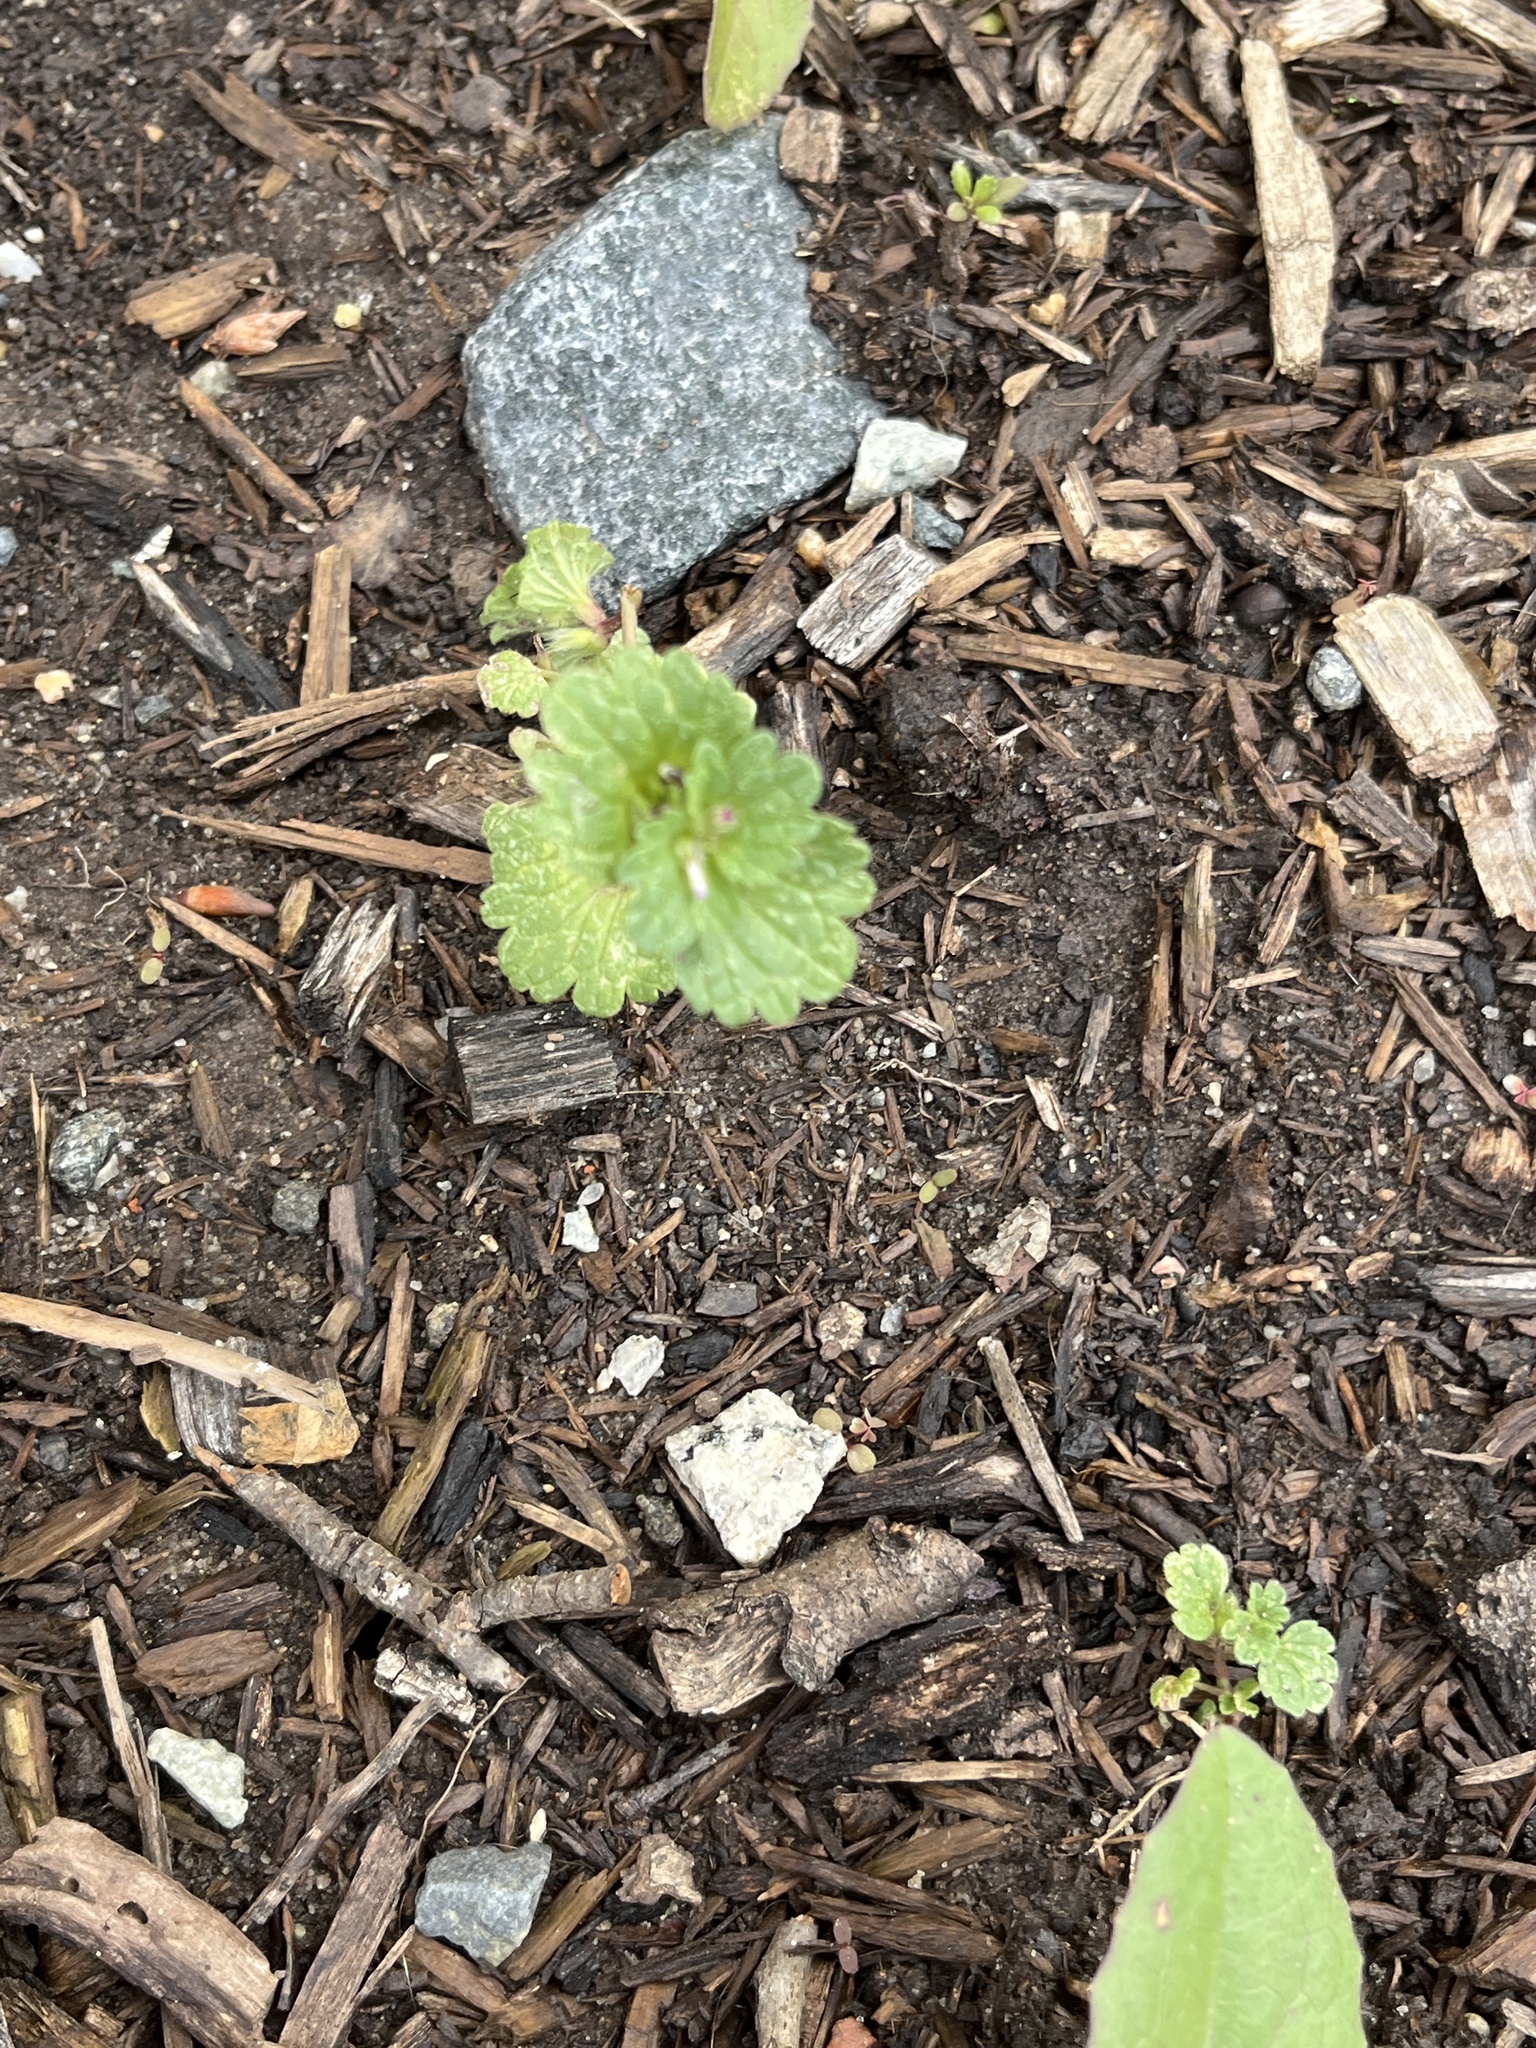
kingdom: Plantae
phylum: Tracheophyta
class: Magnoliopsida
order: Lamiales
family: Lamiaceae
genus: Lamium
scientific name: Lamium amplexicaule
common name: Henbit dead-nettle
